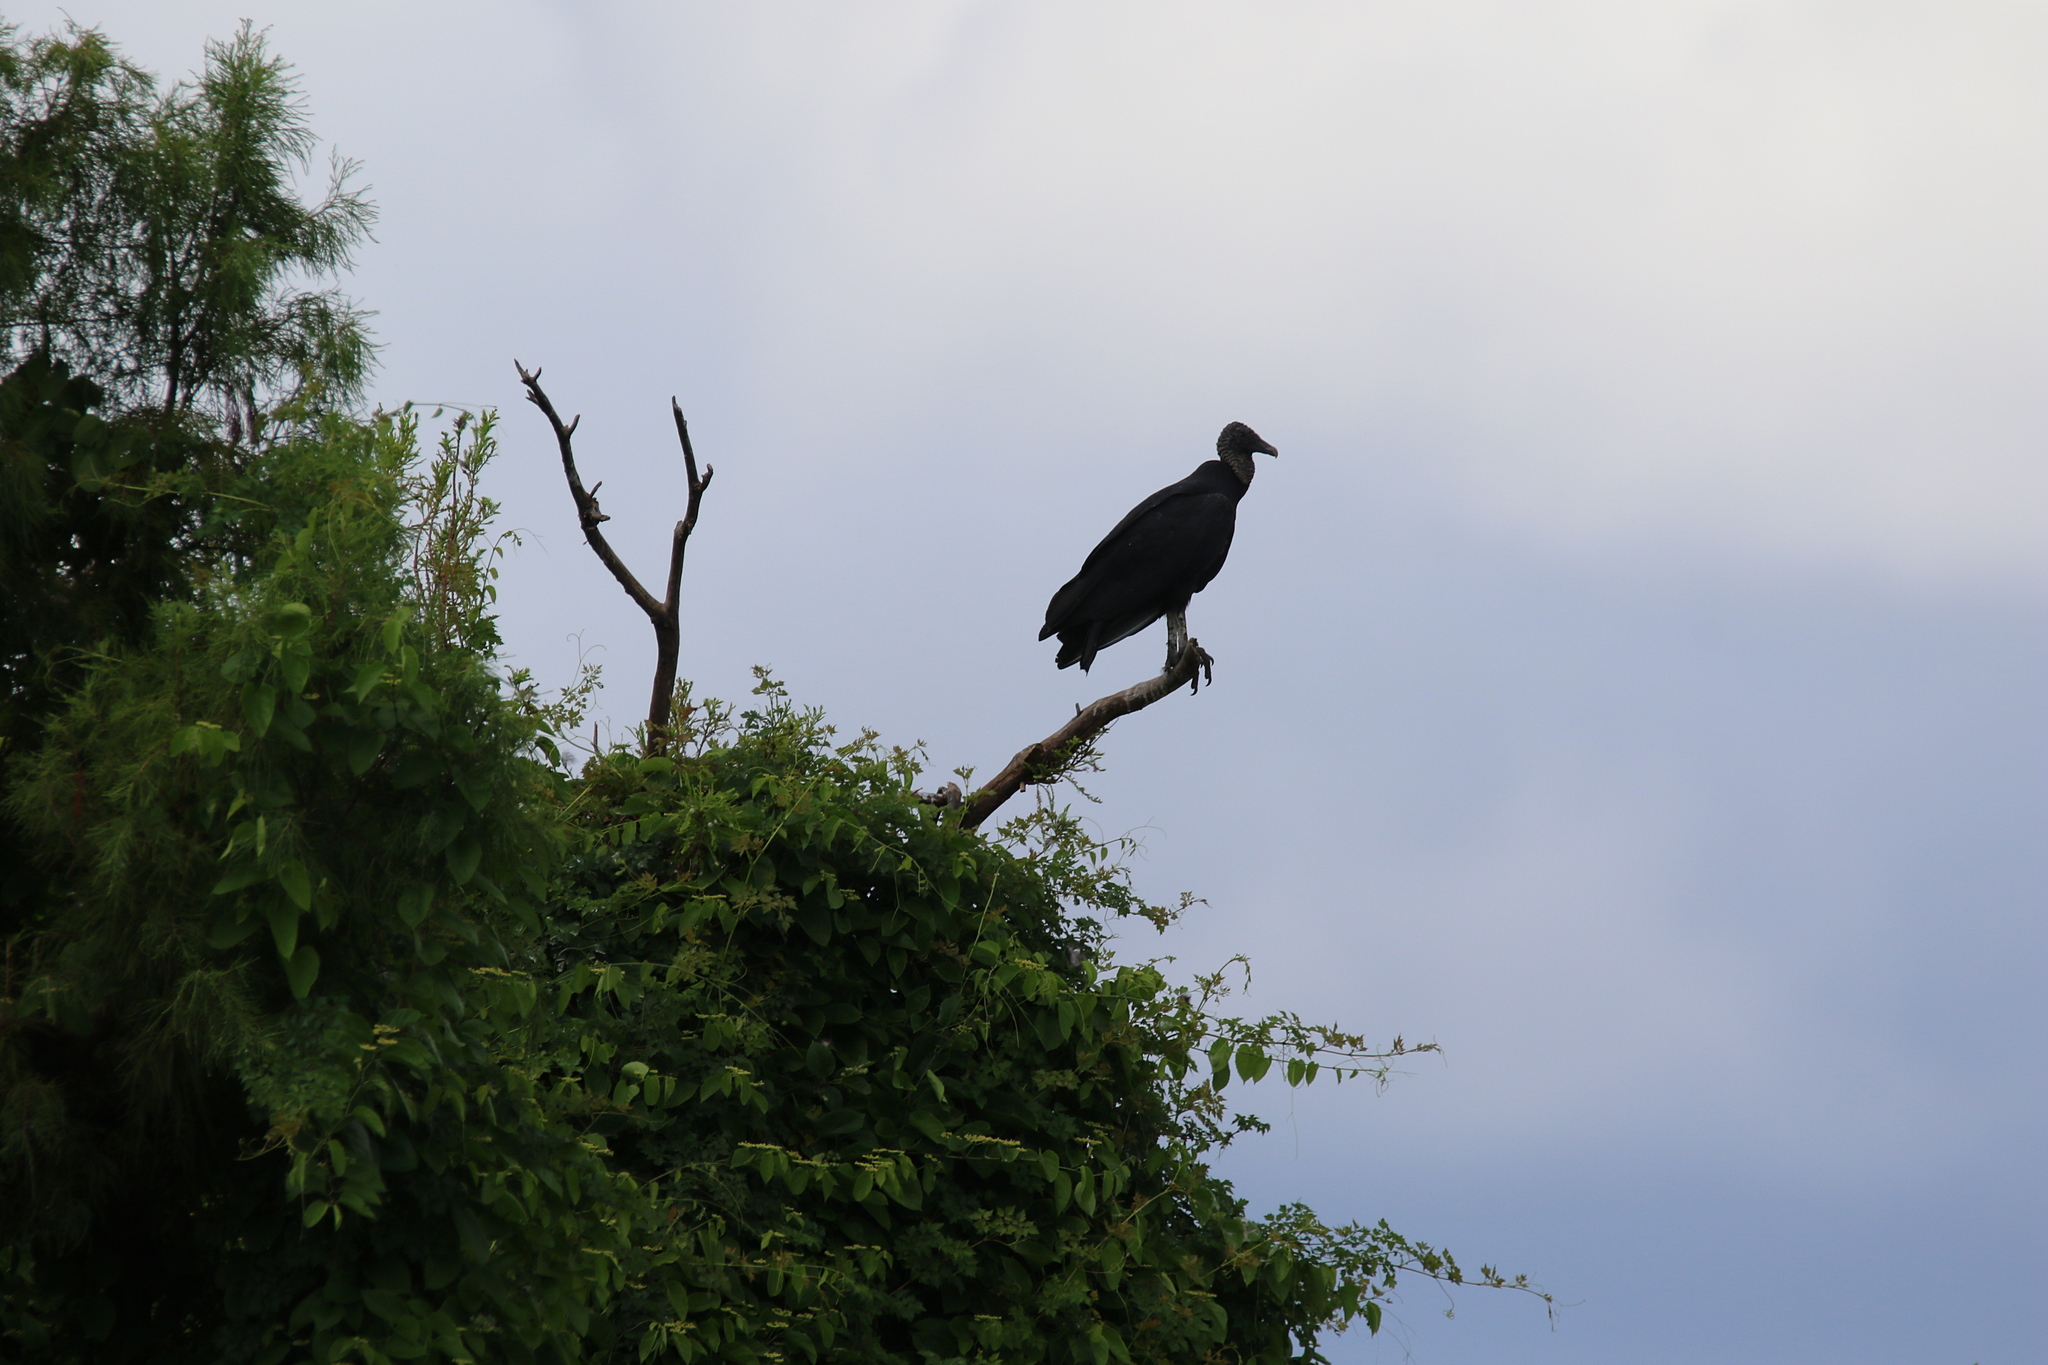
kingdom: Animalia
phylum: Chordata
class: Aves
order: Accipitriformes
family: Cathartidae
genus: Coragyps
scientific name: Coragyps atratus
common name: Black vulture
